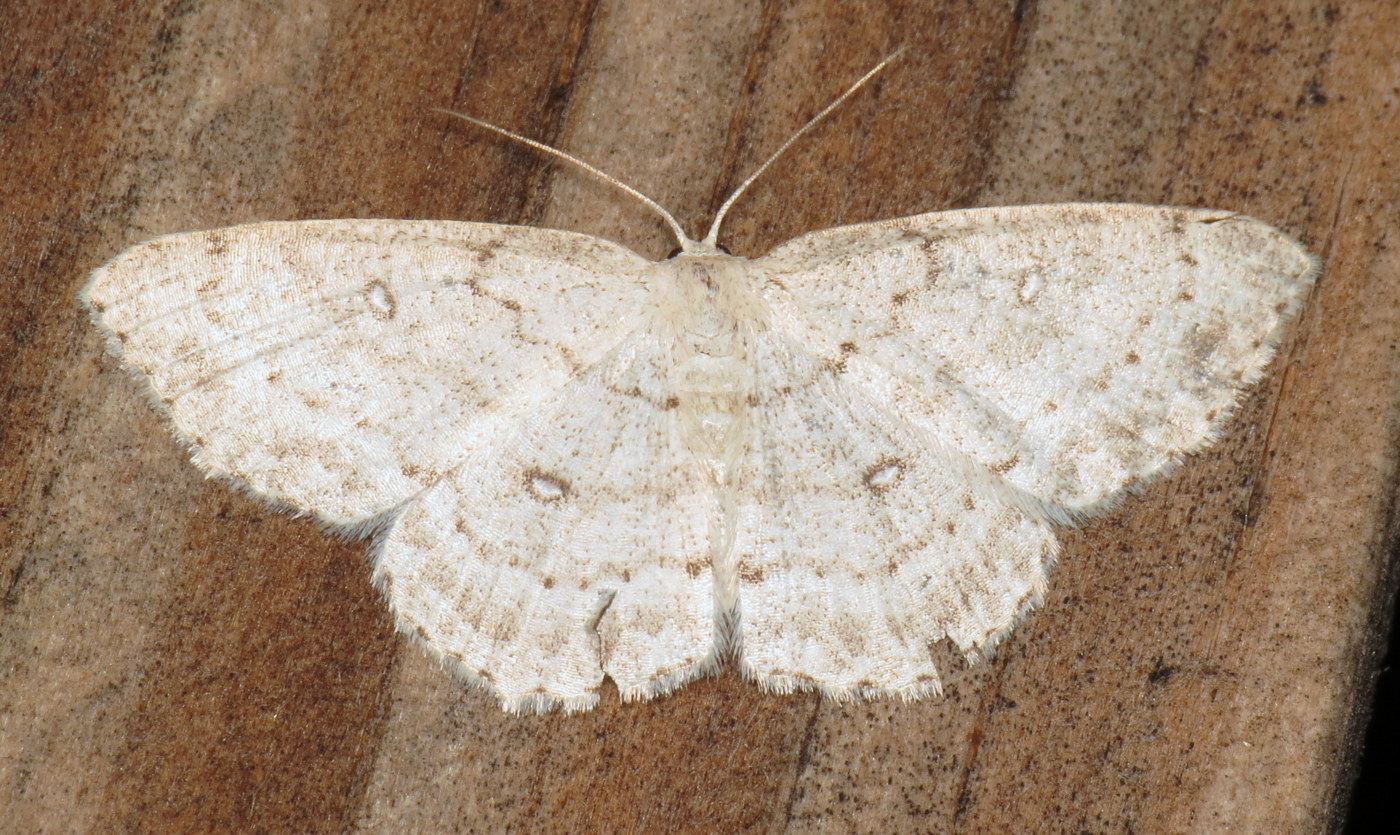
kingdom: Animalia
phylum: Arthropoda
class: Insecta
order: Lepidoptera
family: Geometridae
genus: Cyclophora
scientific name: Cyclophora pendulinaria
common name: Sweet fern geometer
